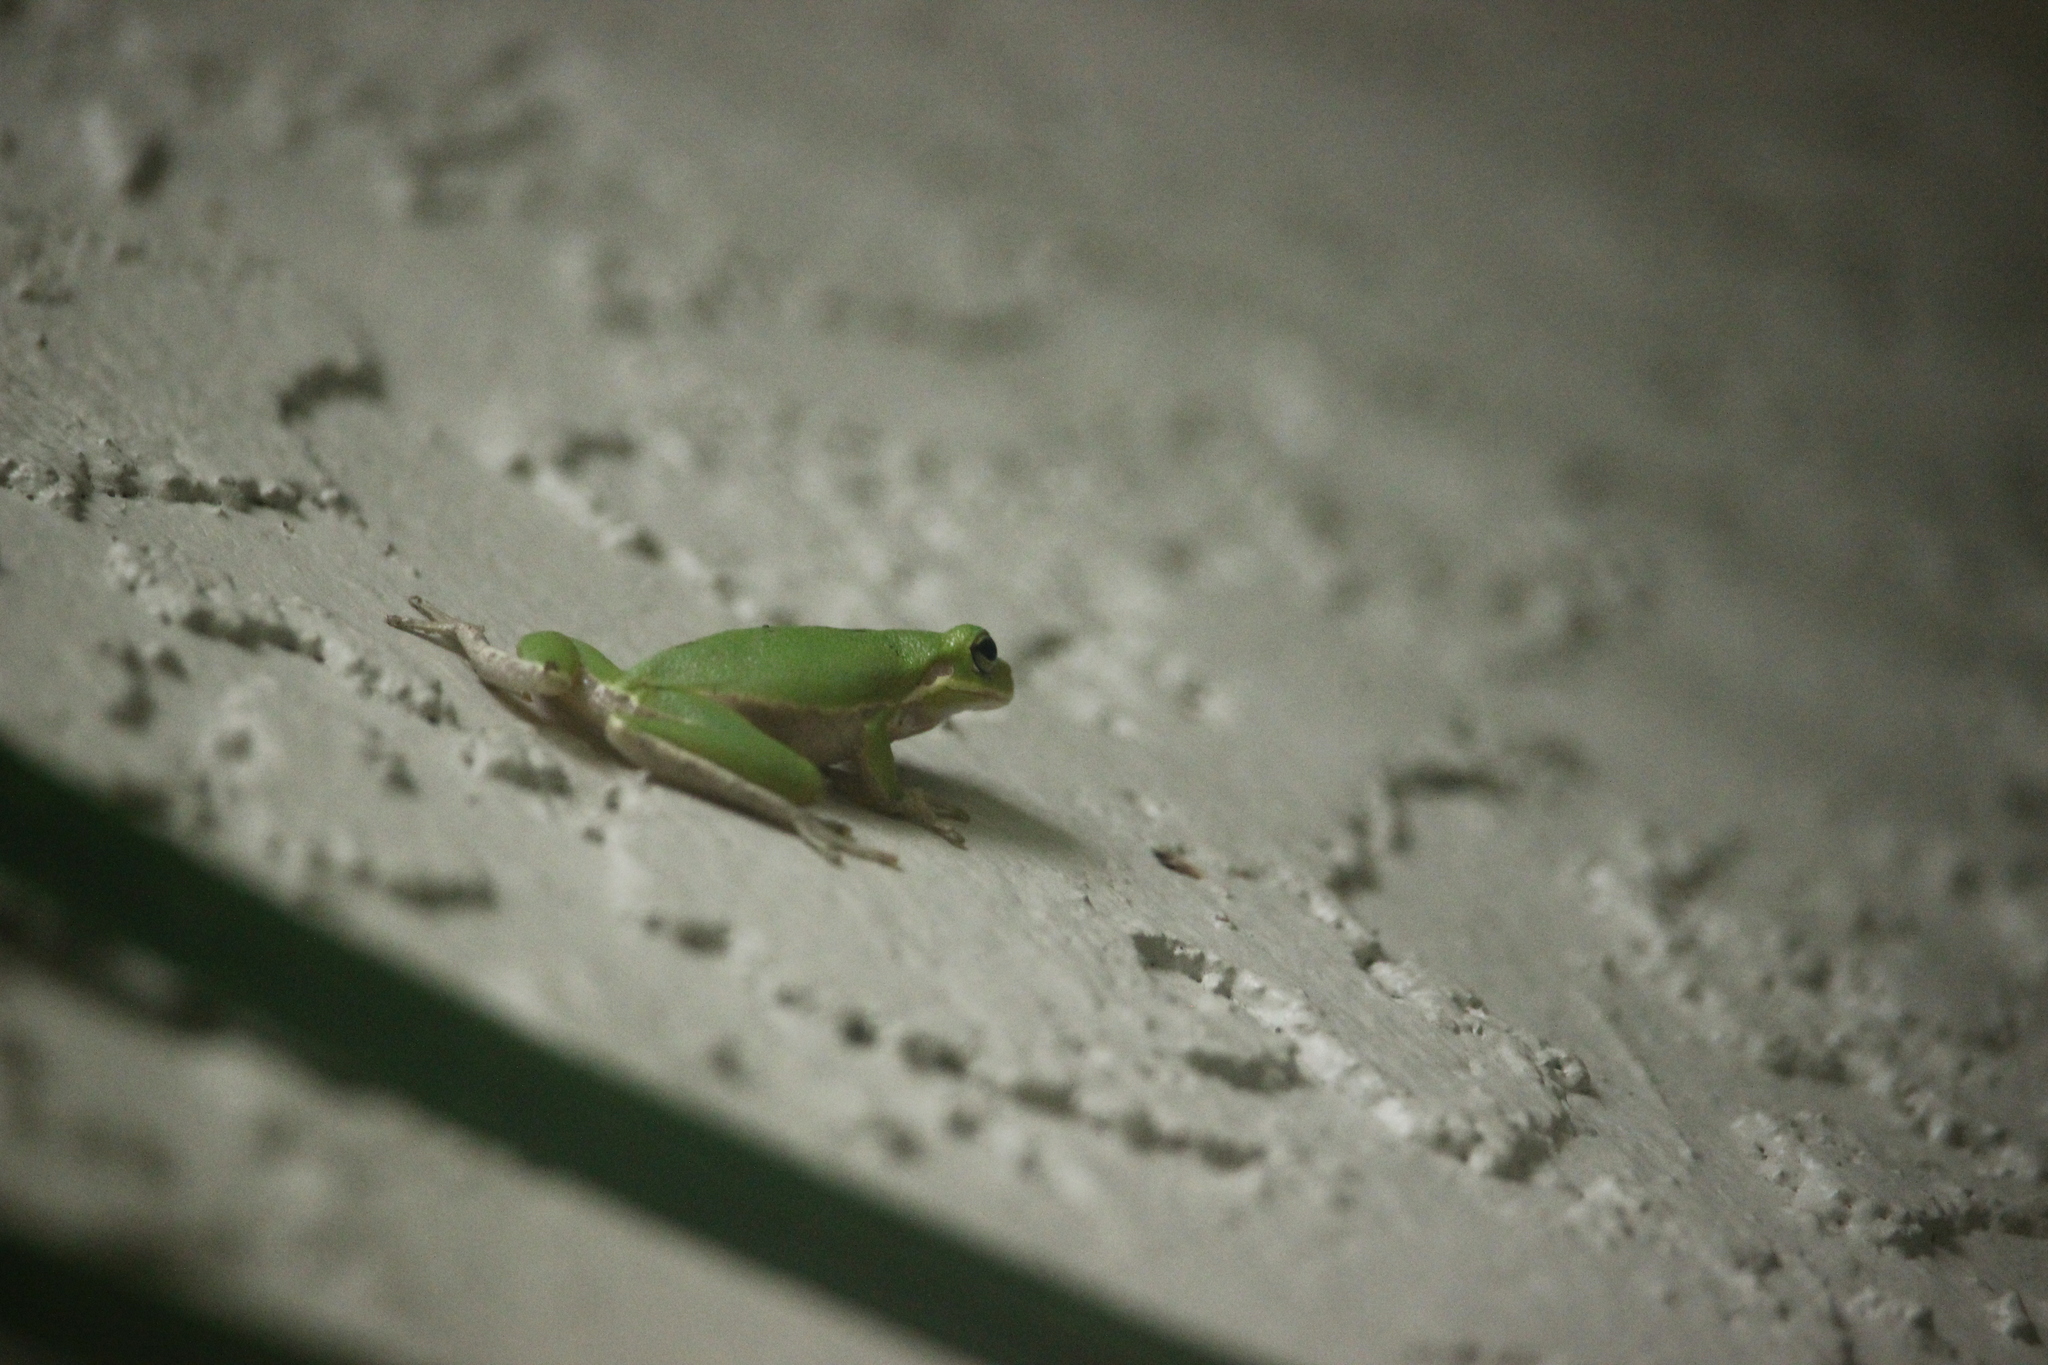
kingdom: Animalia
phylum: Chordata
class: Amphibia
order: Anura
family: Hylidae
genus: Dryophytes
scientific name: Dryophytes squirellus
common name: Squirrel treefrog
